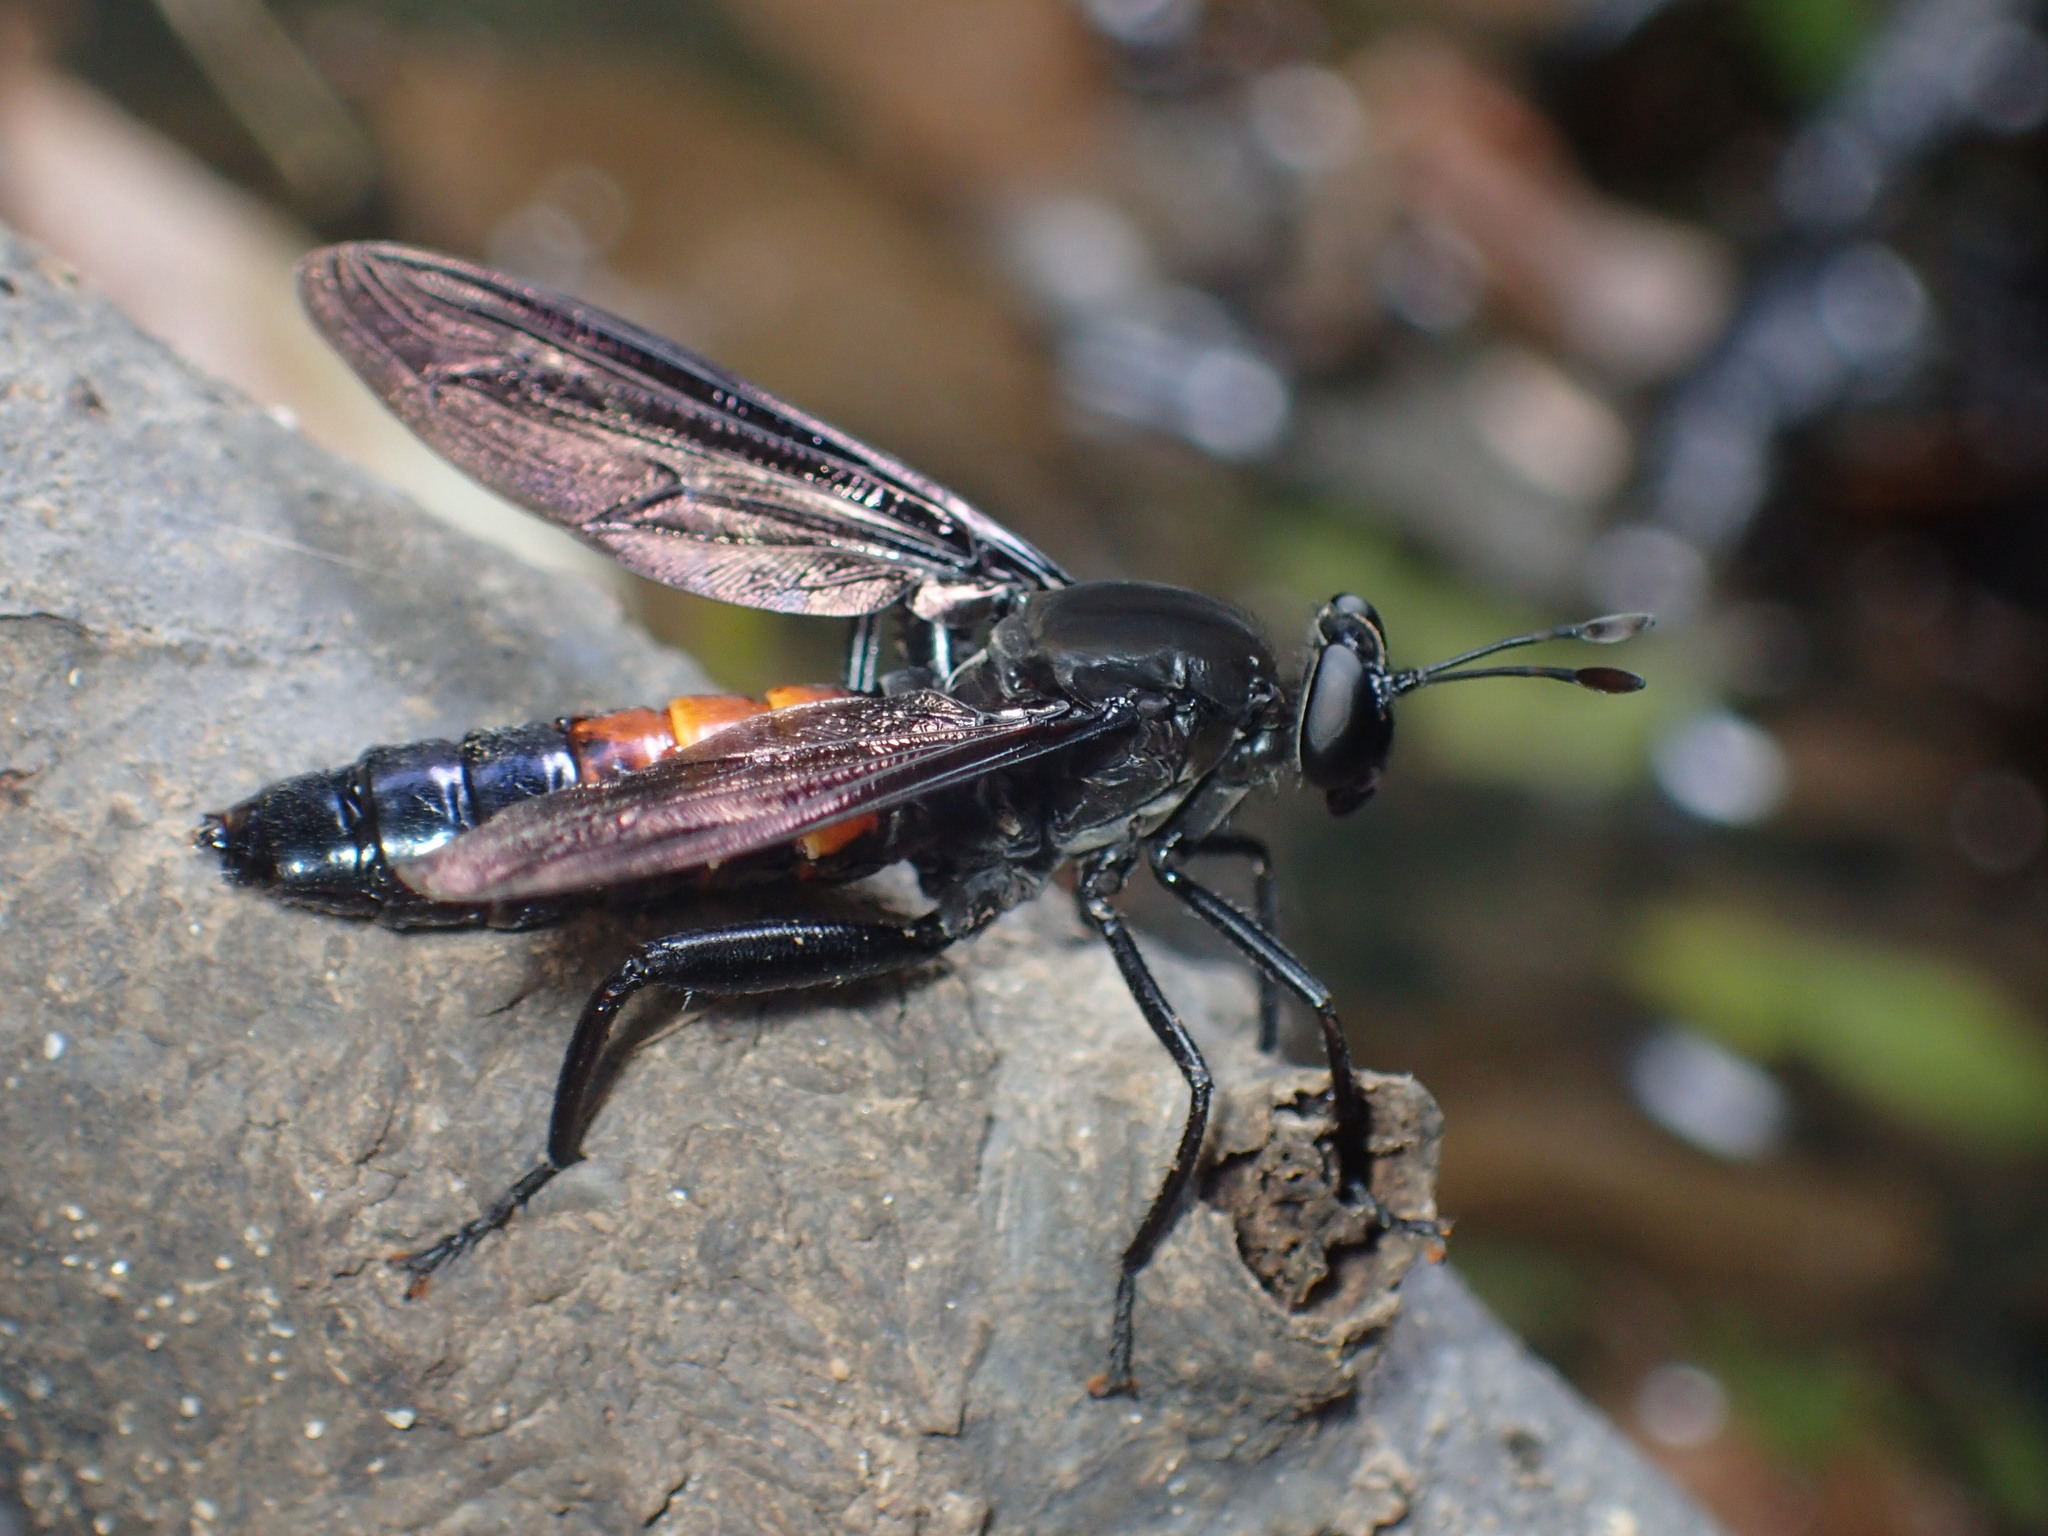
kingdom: Animalia
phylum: Arthropoda
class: Insecta
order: Diptera
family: Mydidae
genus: Mydas
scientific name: Mydas fulvifrons
